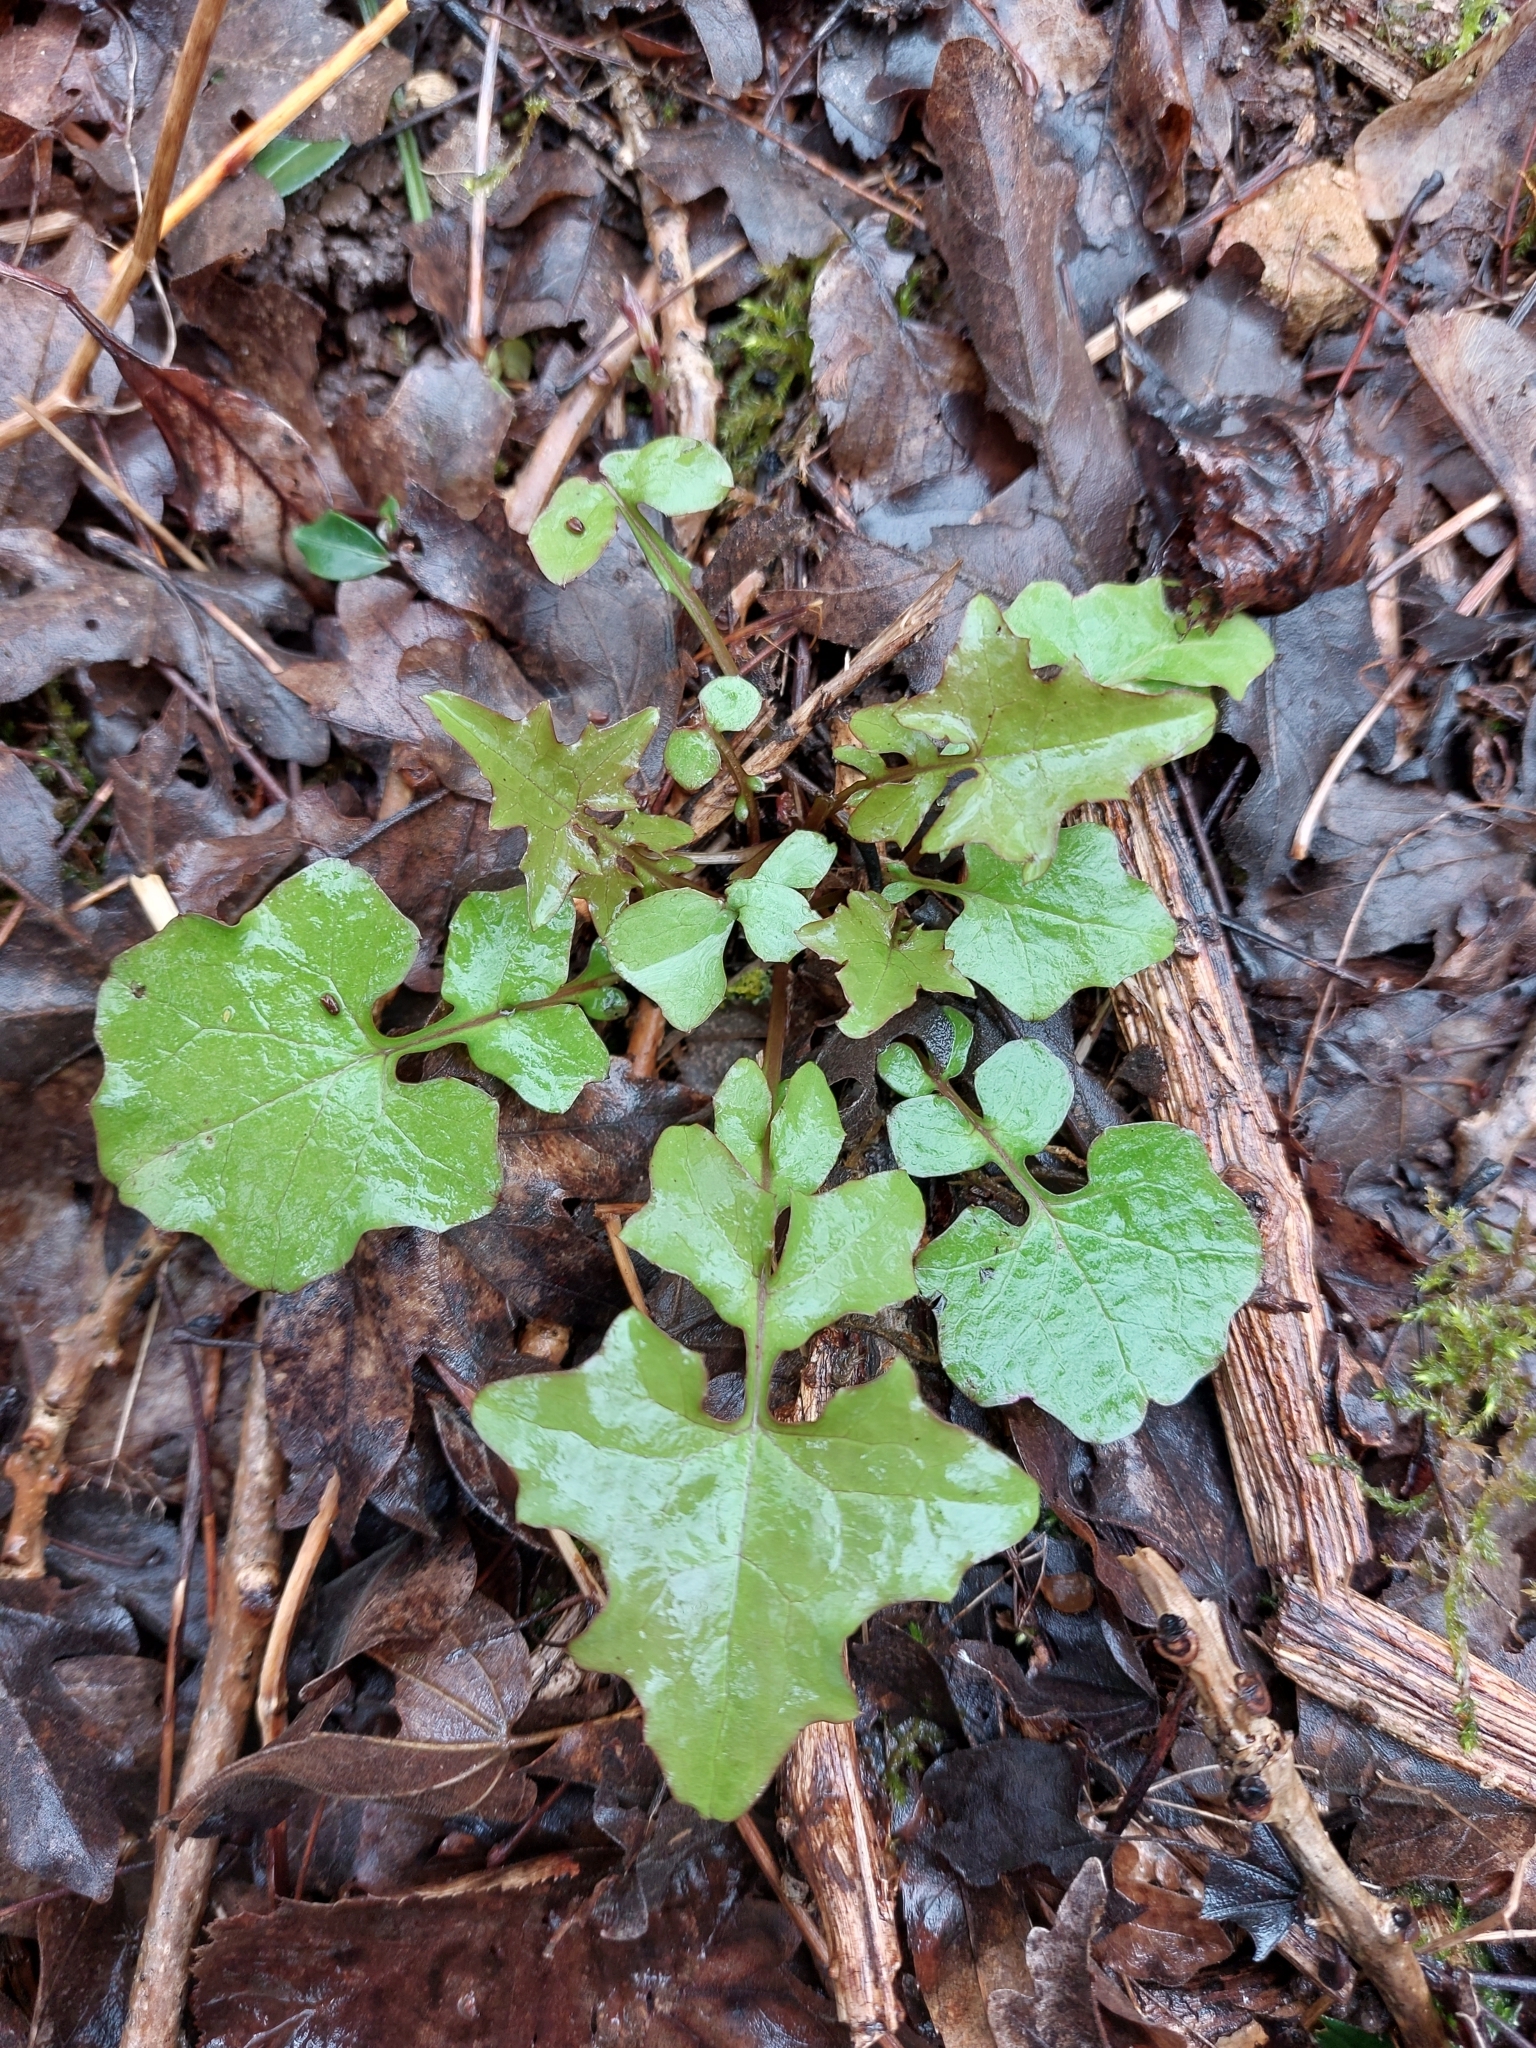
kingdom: Plantae
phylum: Tracheophyta
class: Magnoliopsida
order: Asterales
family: Asteraceae
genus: Mycelis
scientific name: Mycelis muralis
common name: Wall lettuce
